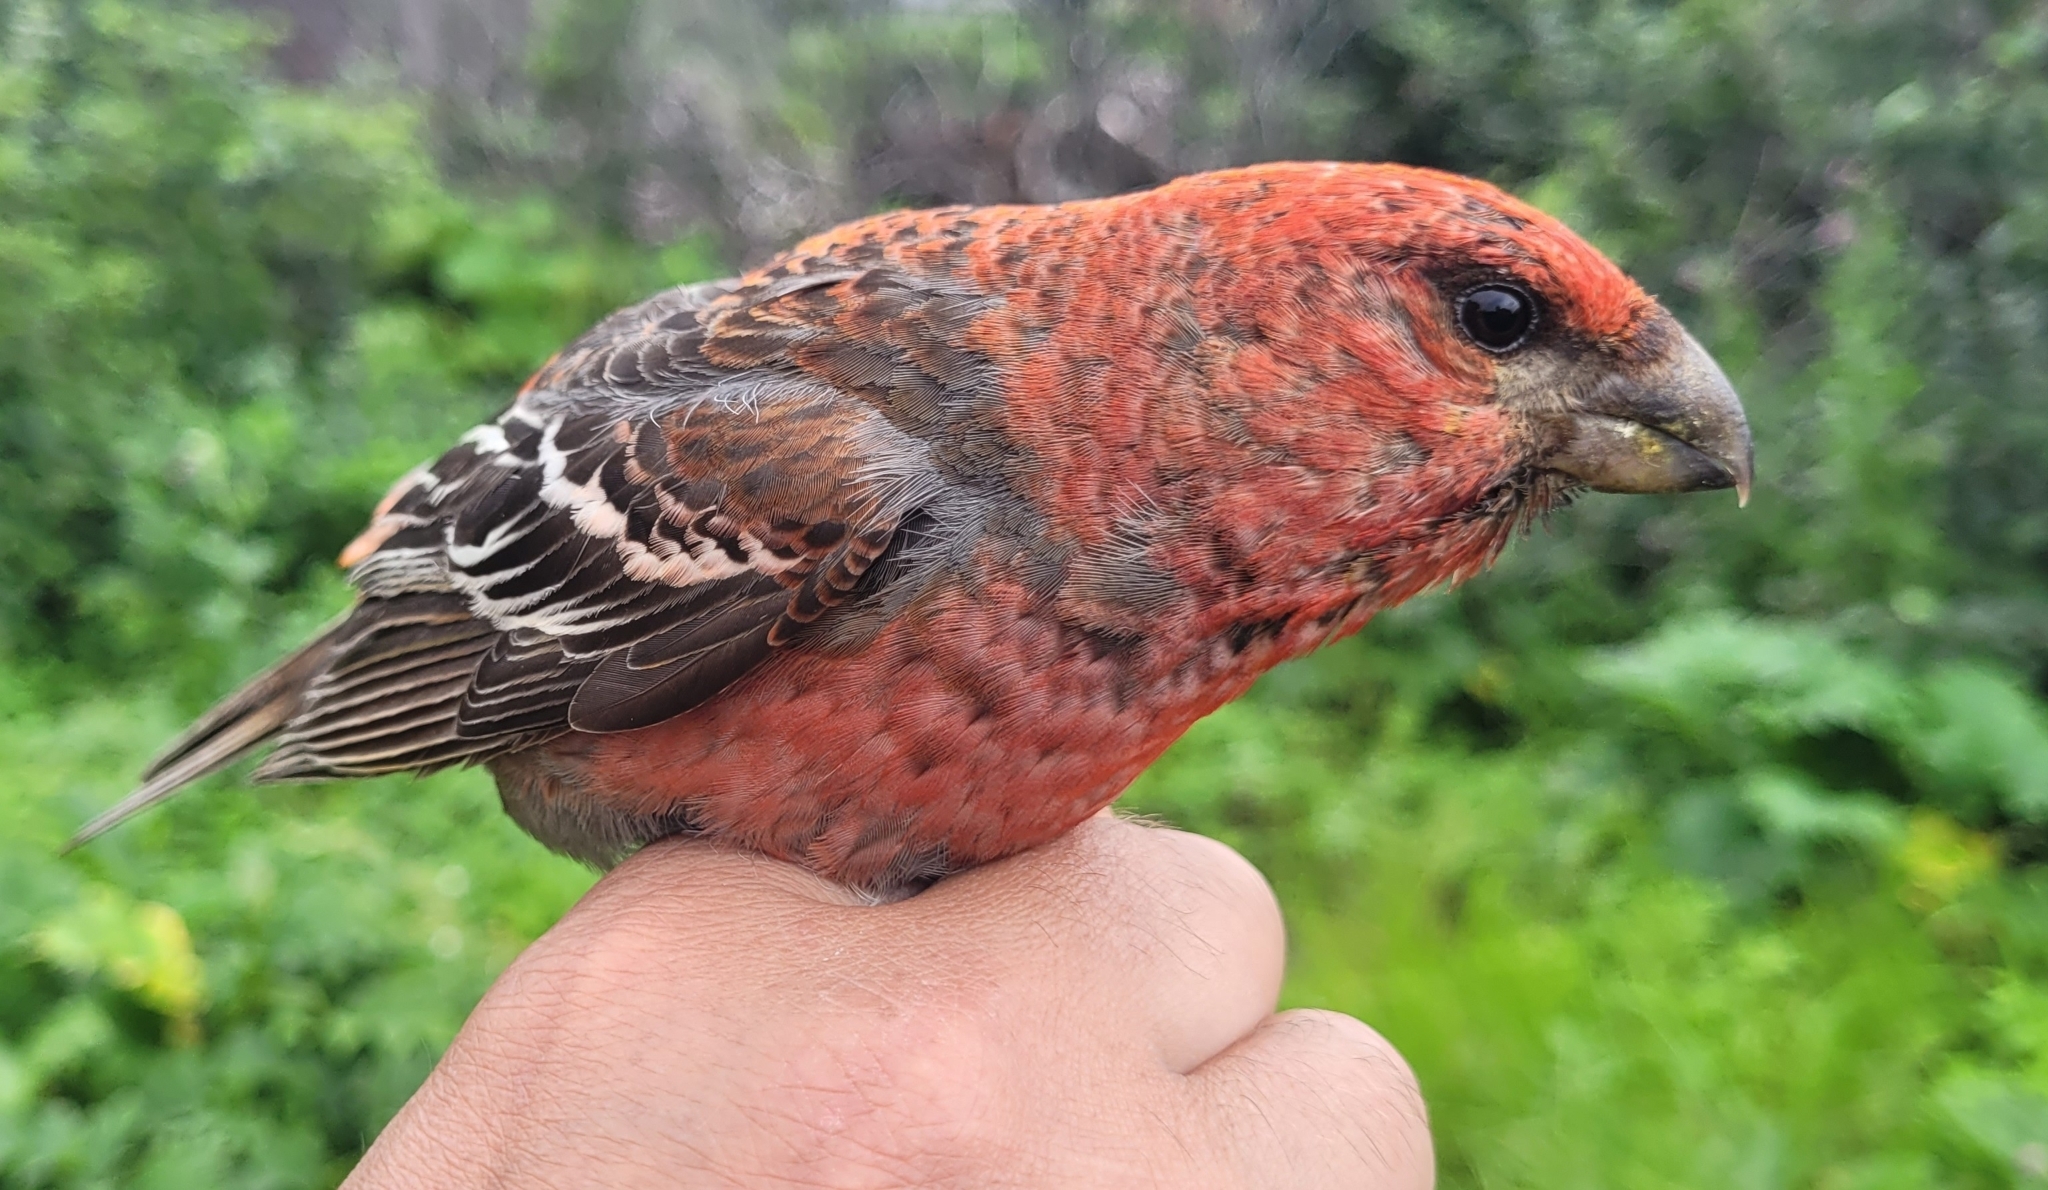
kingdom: Animalia
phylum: Chordata
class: Aves
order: Passeriformes
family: Fringillidae
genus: Pinicola
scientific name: Pinicola enucleator
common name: Pine grosbeak
